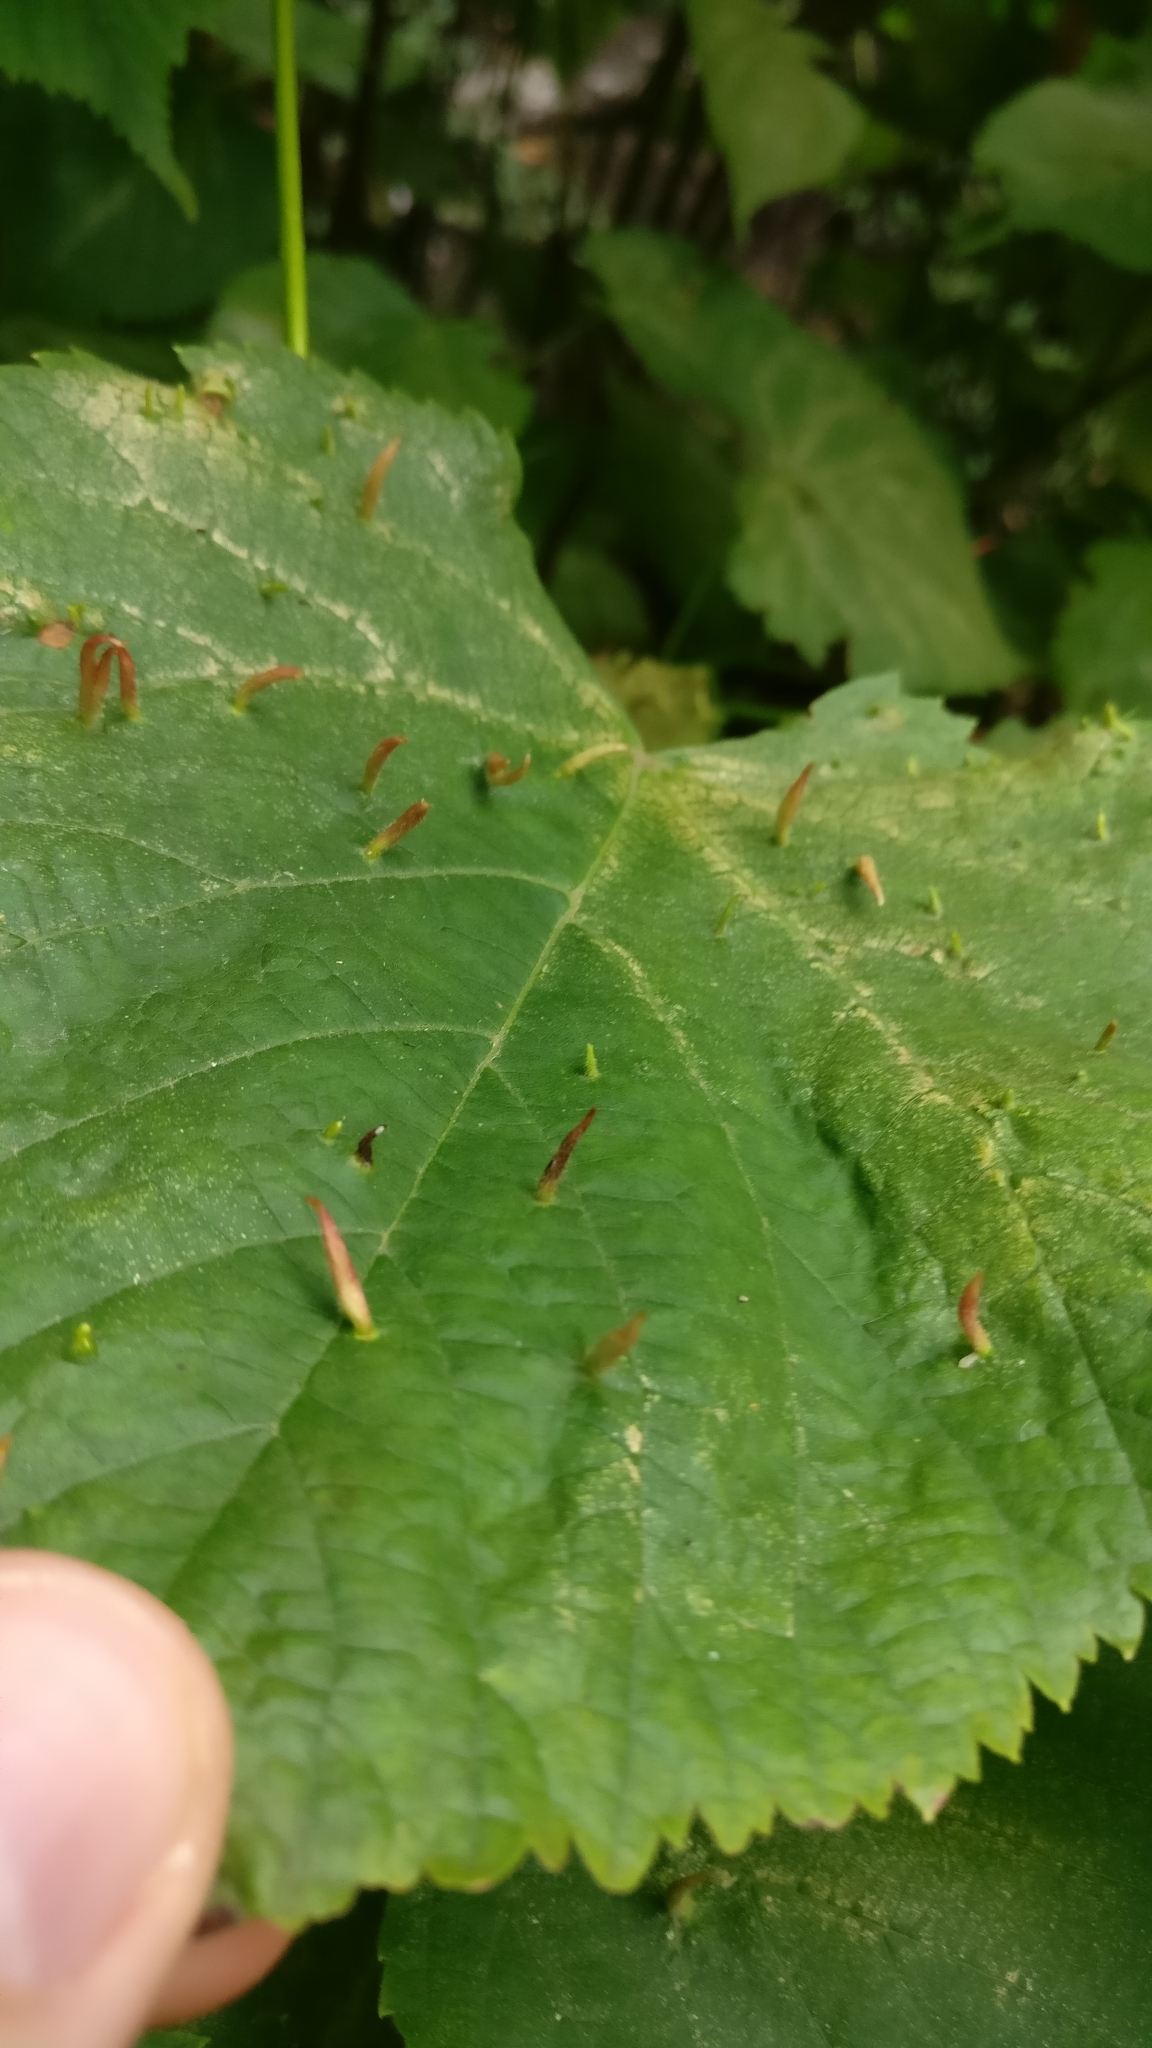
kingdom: Animalia
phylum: Arthropoda
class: Arachnida
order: Trombidiformes
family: Eriophyidae
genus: Eriophyes
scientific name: Eriophyes tiliae
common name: Red nail gall mite
